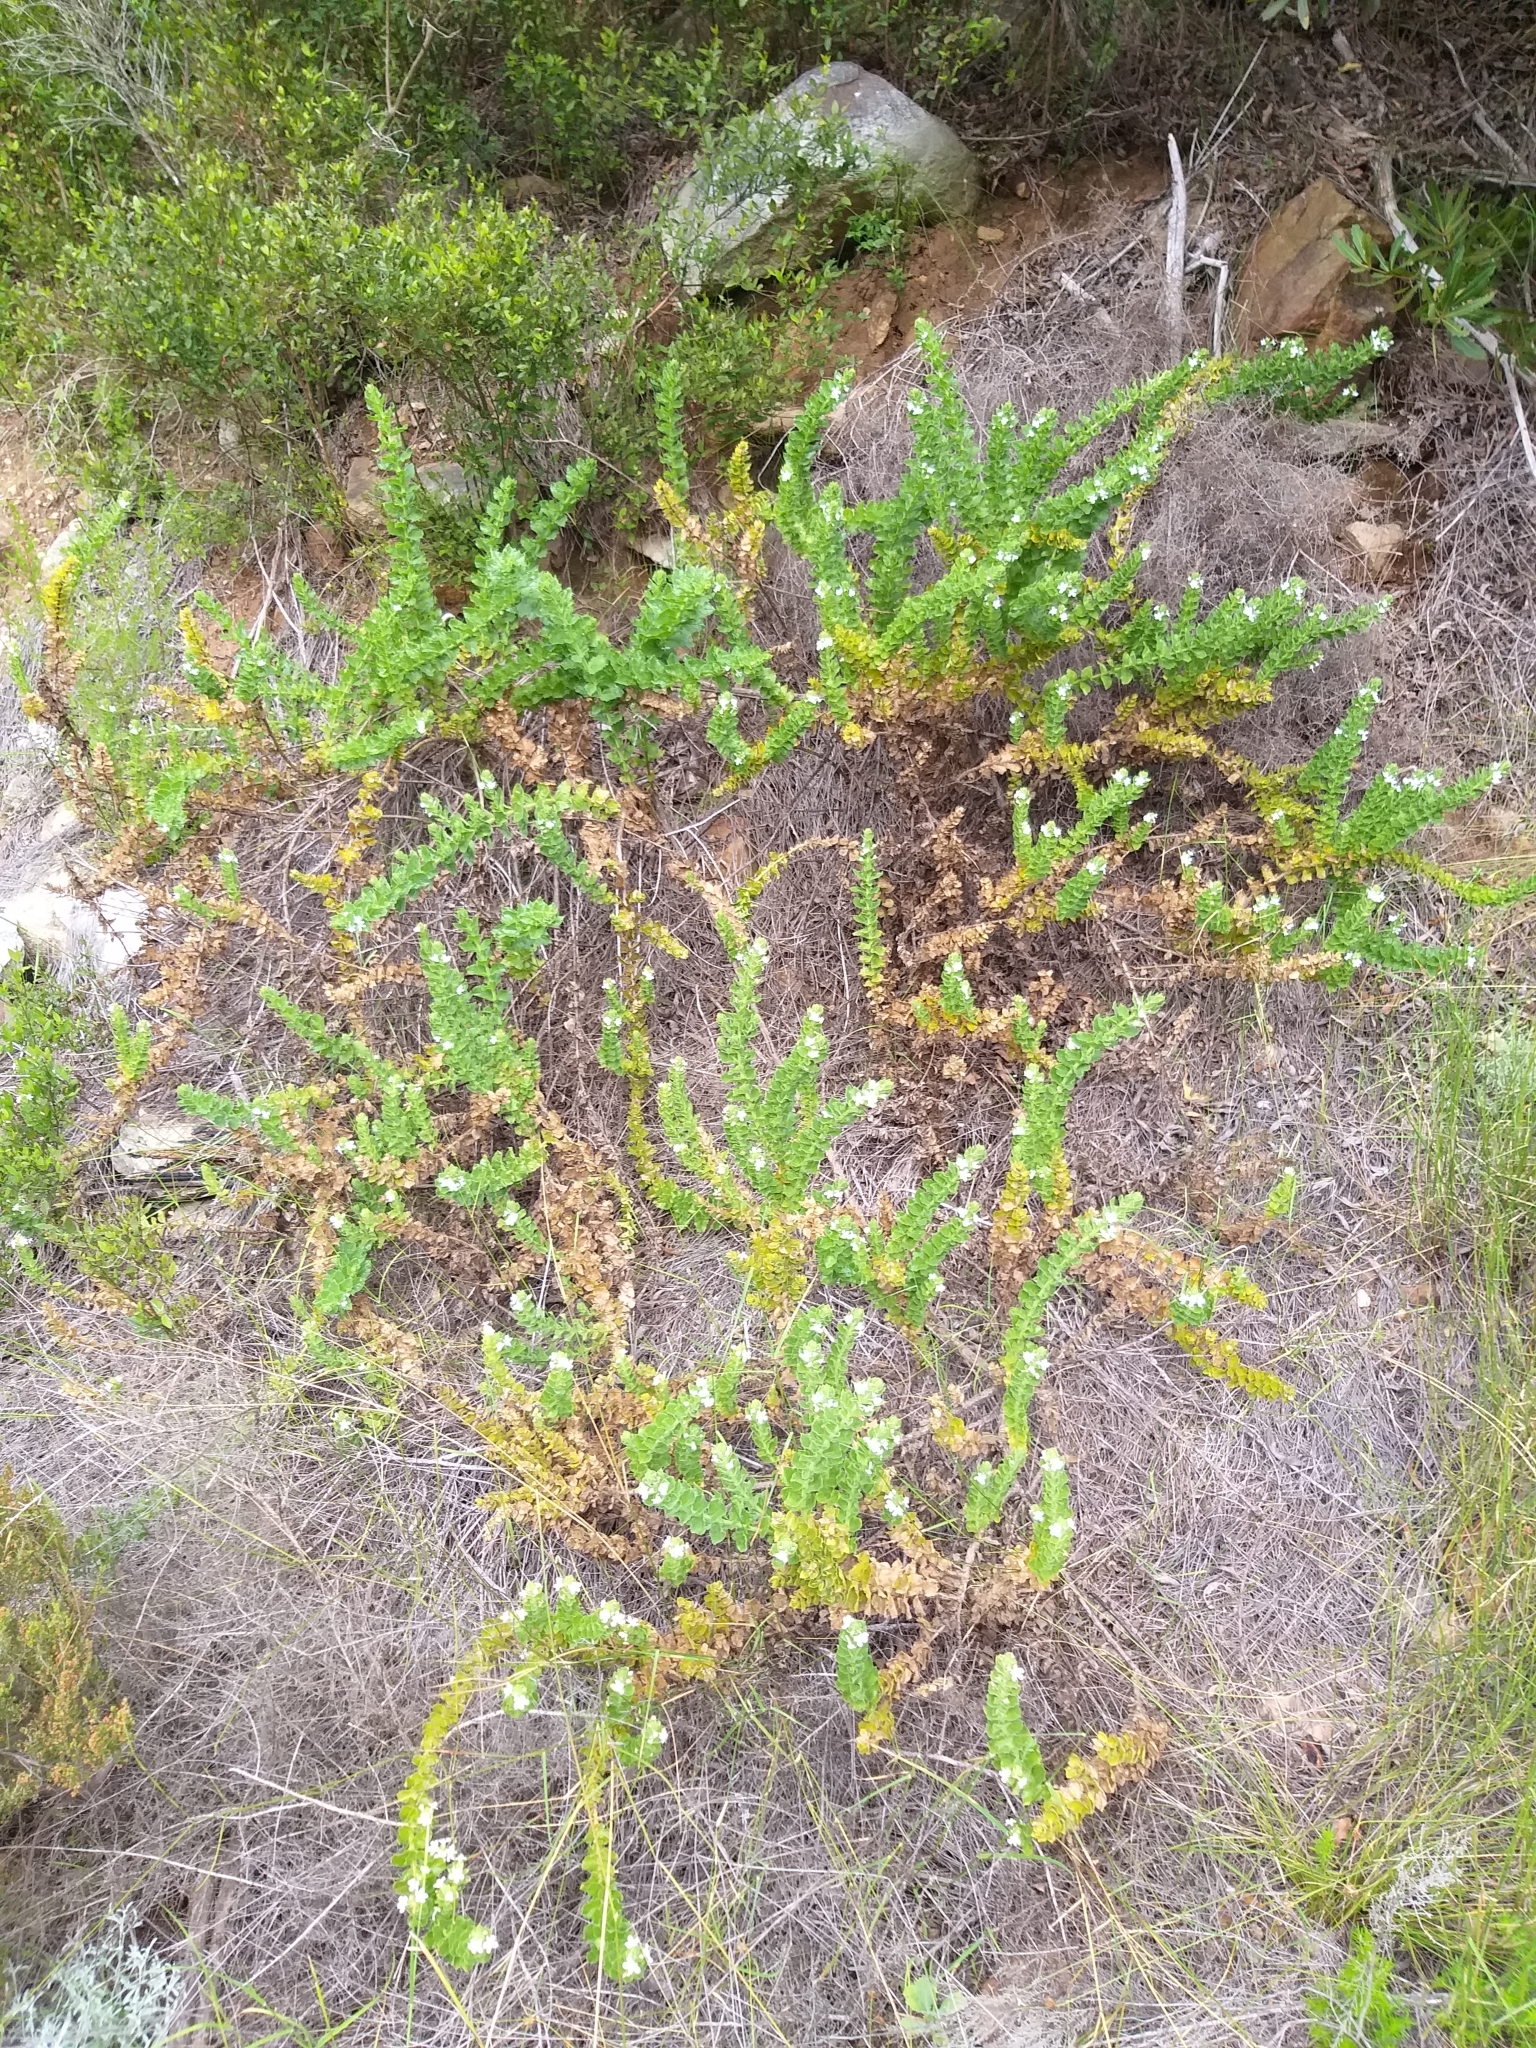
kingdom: Plantae
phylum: Tracheophyta
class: Magnoliopsida
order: Lamiales
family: Scrophulariaceae
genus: Oftia
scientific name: Oftia africana
